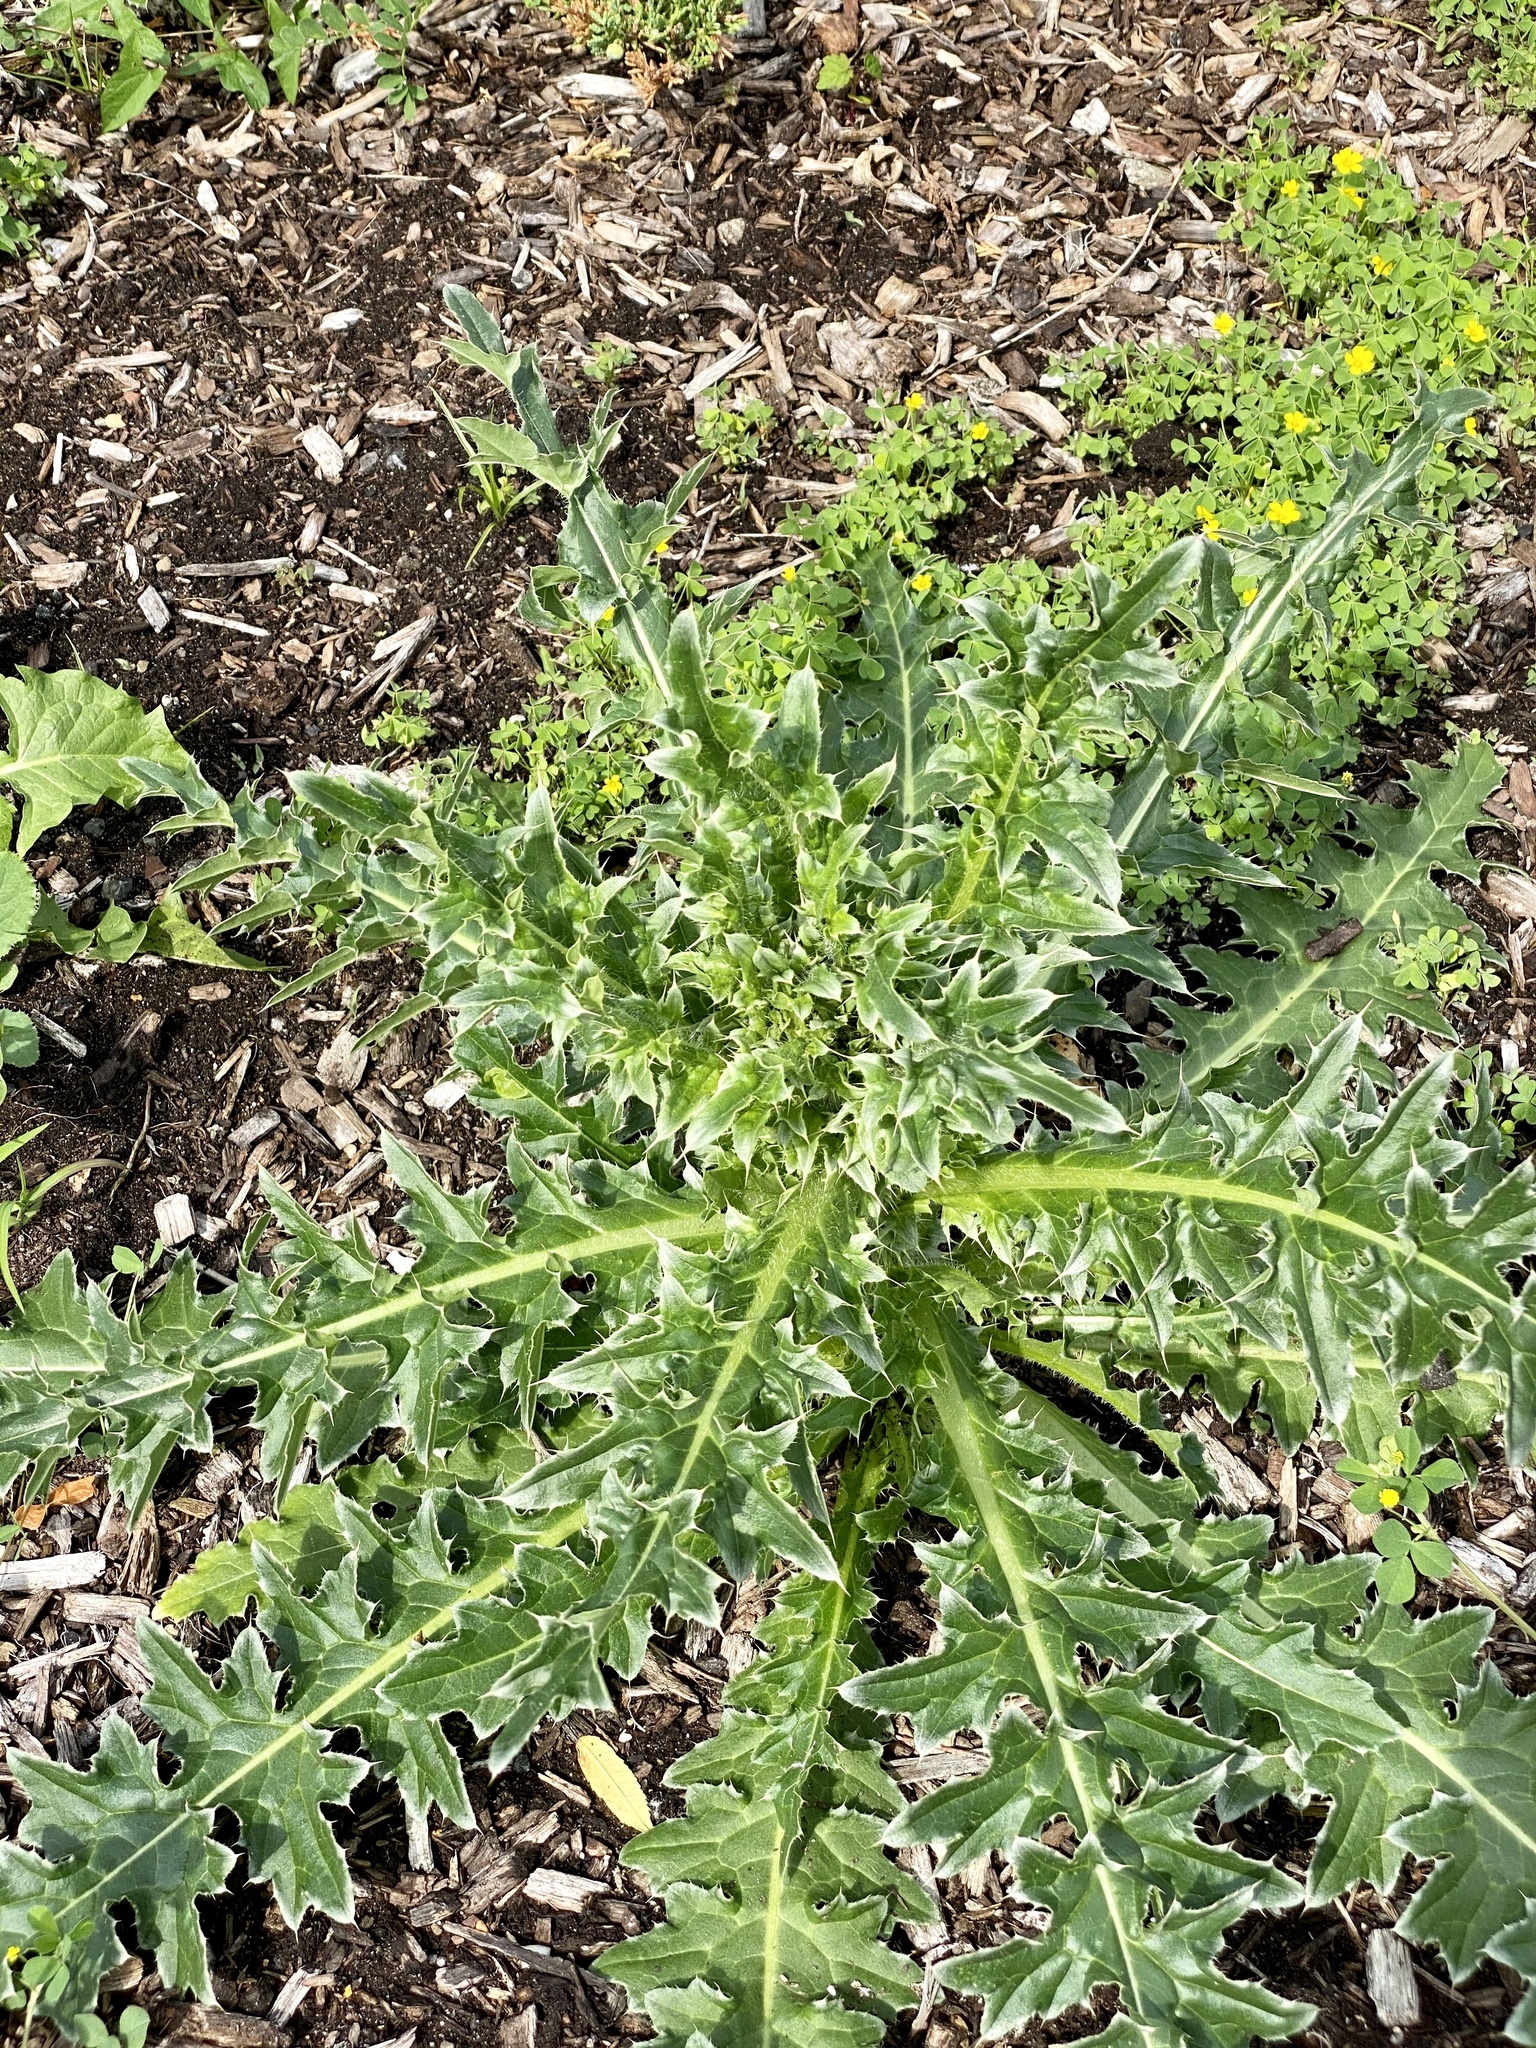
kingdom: Plantae
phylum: Tracheophyta
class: Magnoliopsida
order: Asterales
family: Asteraceae
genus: Carduus
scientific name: Carduus nutans
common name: Musk thistle
